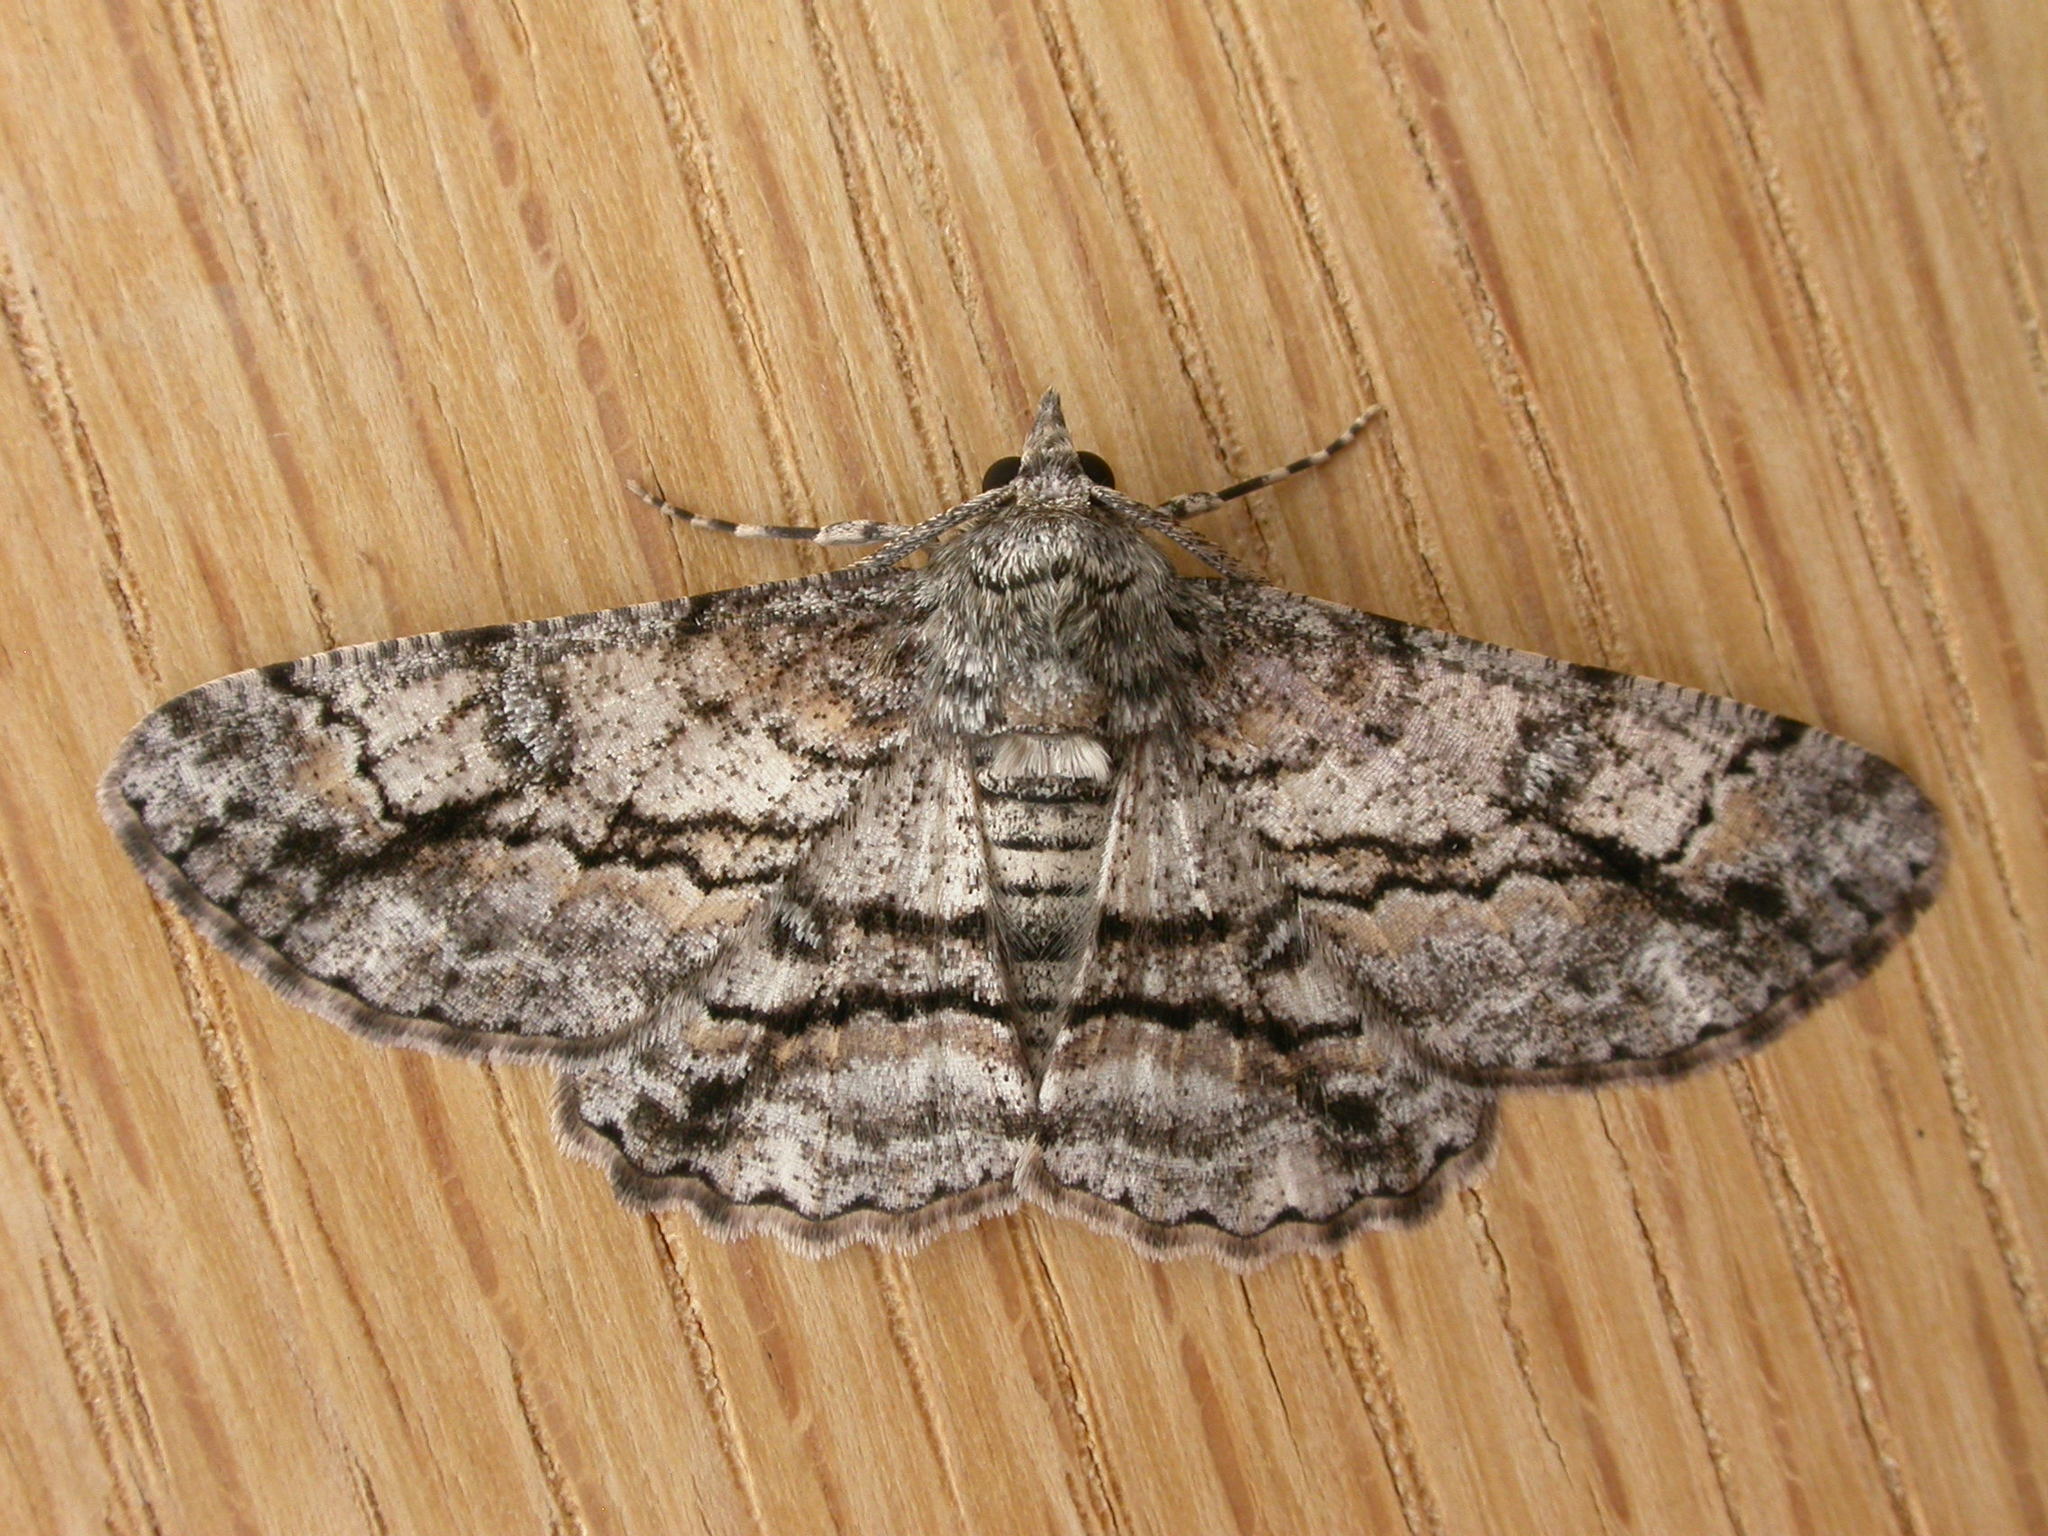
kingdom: Animalia
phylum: Arthropoda
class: Insecta
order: Lepidoptera
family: Geometridae
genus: Cleora
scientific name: Cleora injectaria
